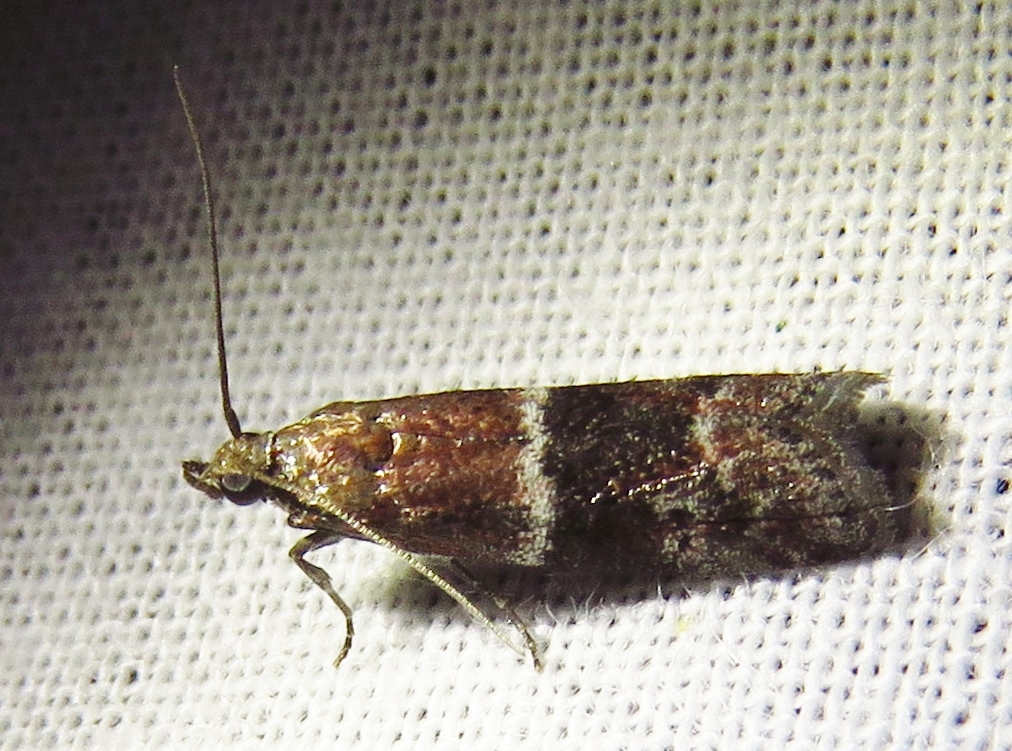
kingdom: Animalia
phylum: Arthropoda
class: Insecta
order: Lepidoptera
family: Pyralidae
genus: Moodna
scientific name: Moodna ostrinella
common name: Darker moodna moth
